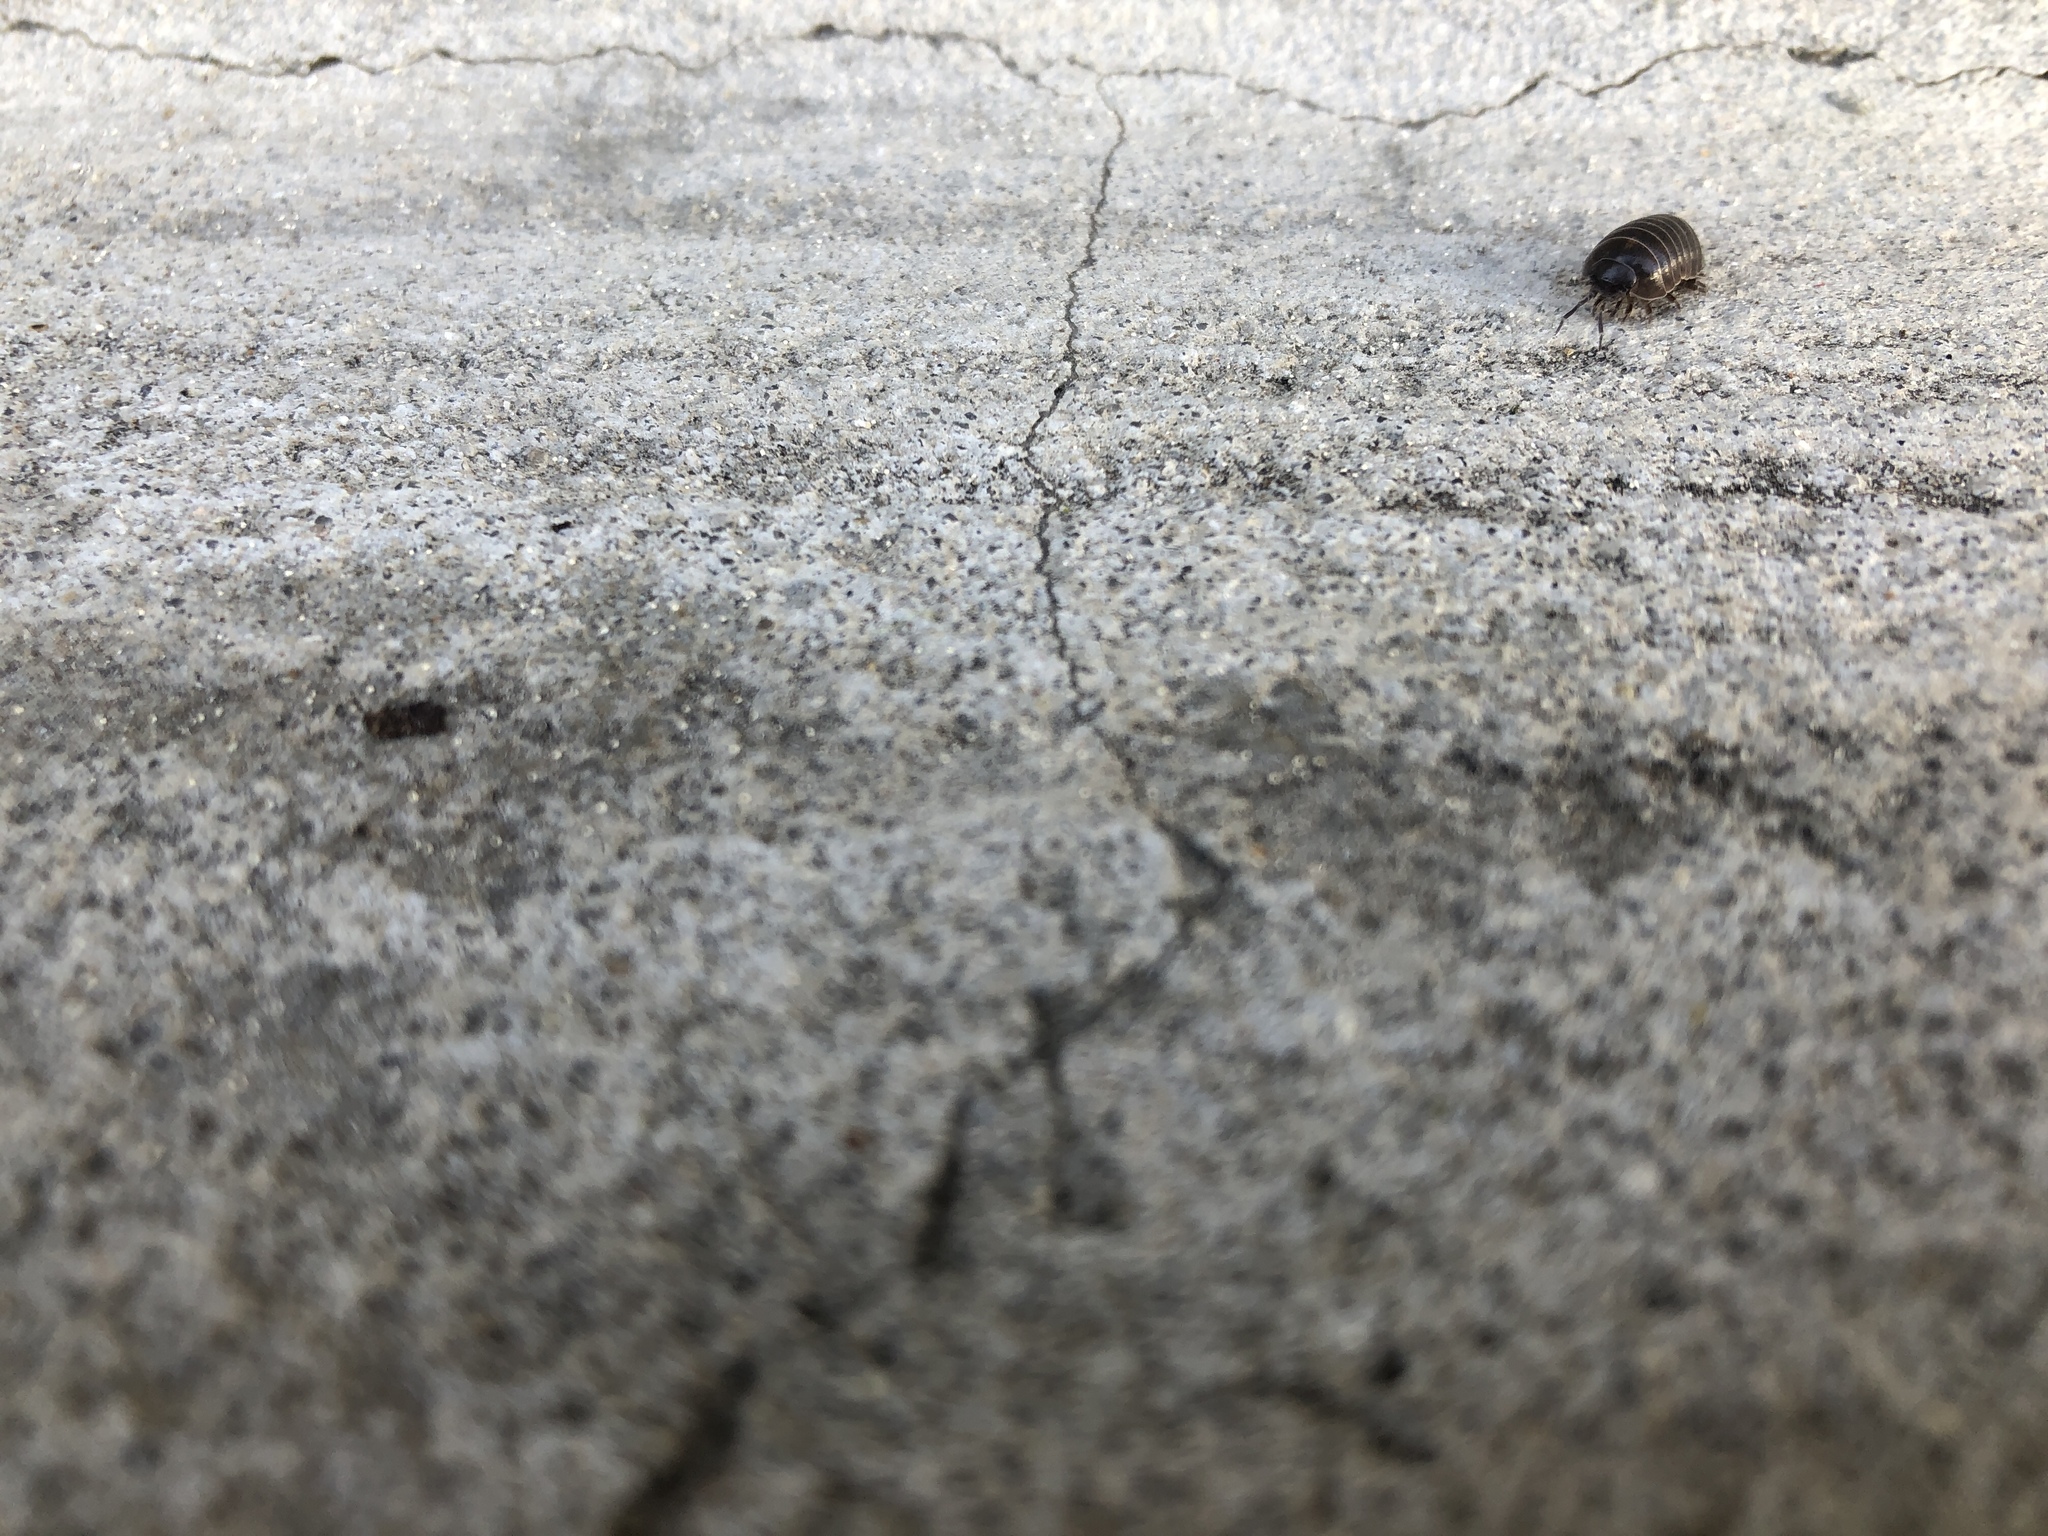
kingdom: Animalia
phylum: Arthropoda
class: Malacostraca
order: Isopoda
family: Armadillidiidae
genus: Armadillidium
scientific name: Armadillidium vulgare
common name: Common pill woodlouse
